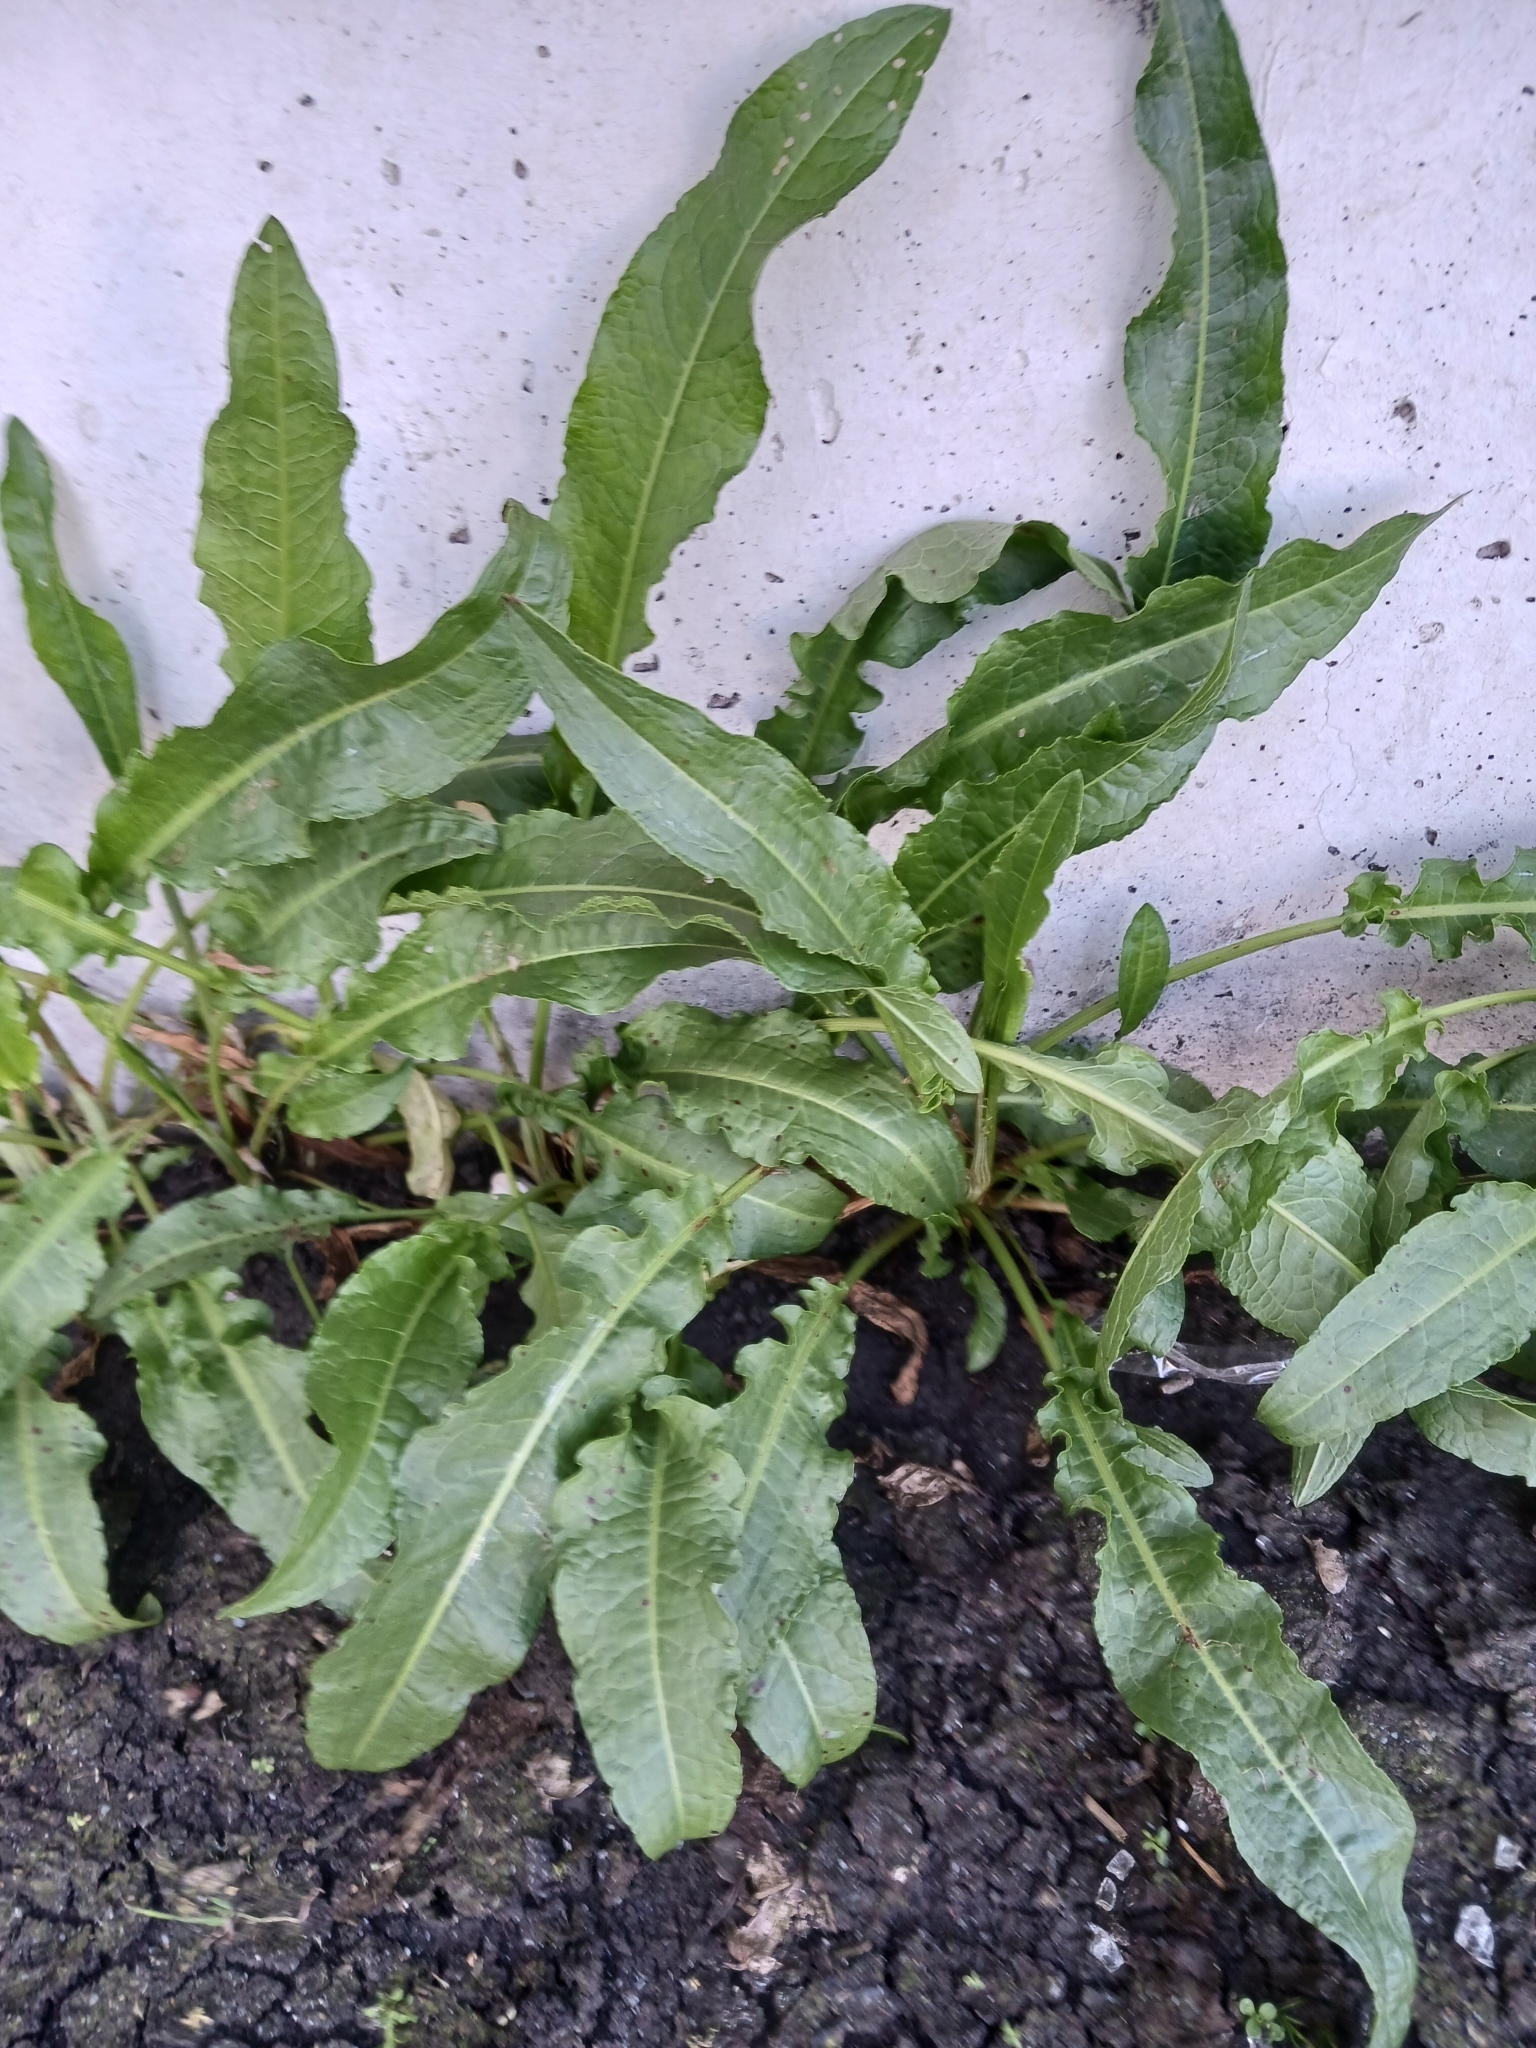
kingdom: Plantae
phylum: Tracheophyta
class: Magnoliopsida
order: Caryophyllales
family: Polygonaceae
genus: Rumex
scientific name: Rumex crispus
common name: Curled dock
